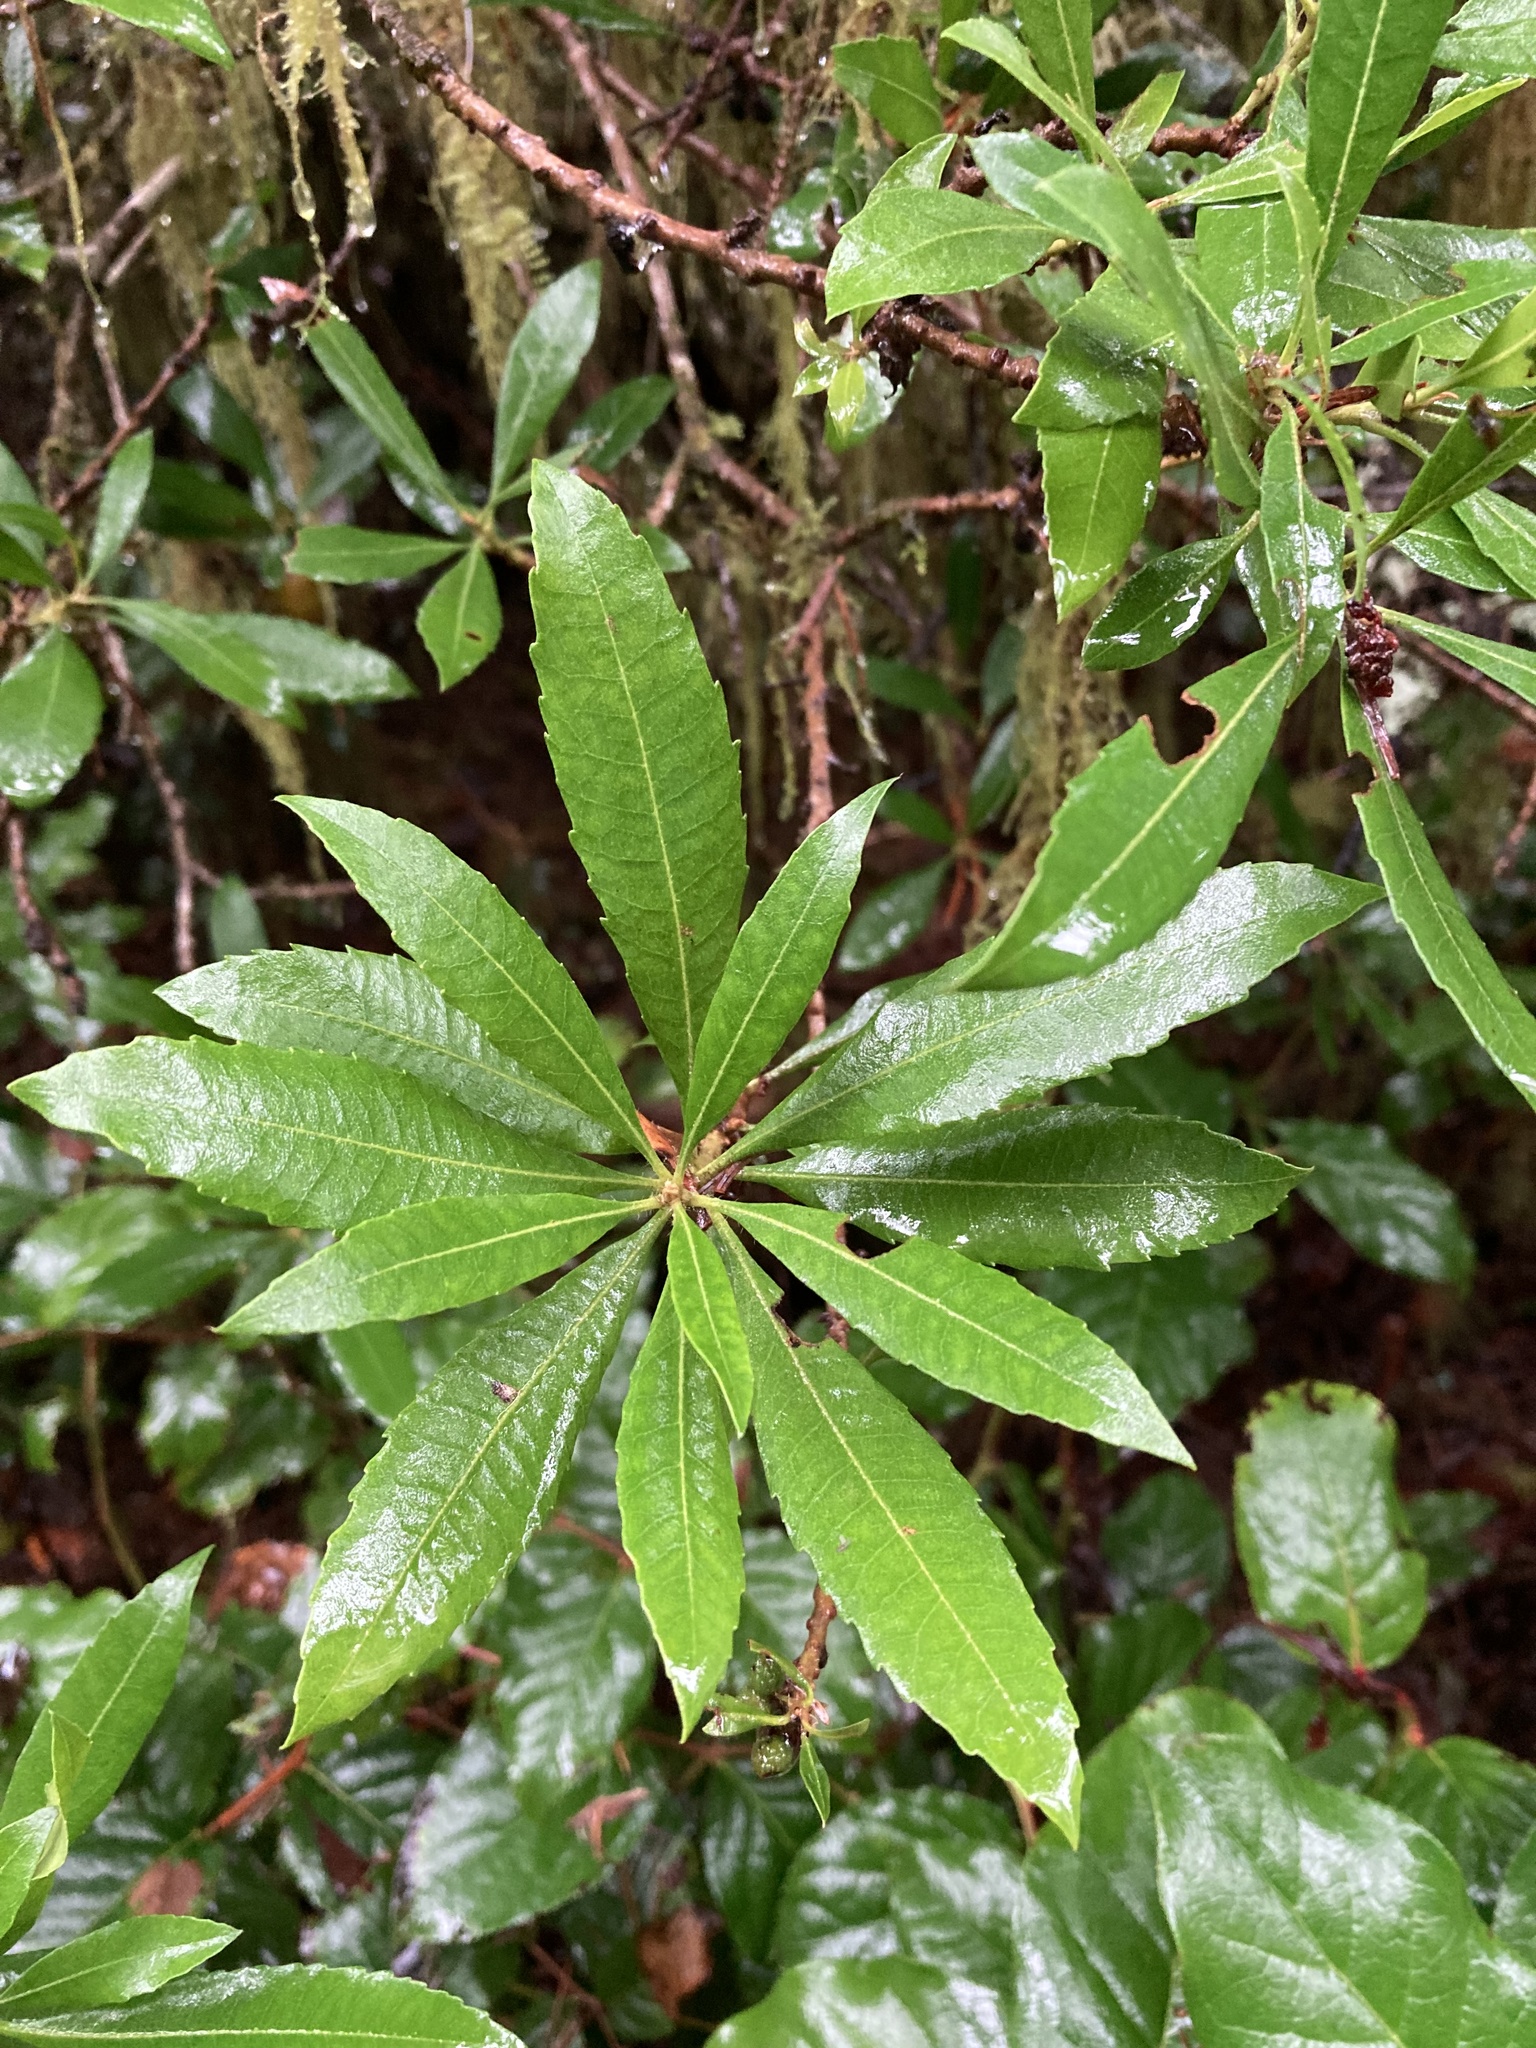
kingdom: Plantae
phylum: Tracheophyta
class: Magnoliopsida
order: Fagales
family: Myricaceae
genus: Morella
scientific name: Morella californica
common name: California wax-myrtle
